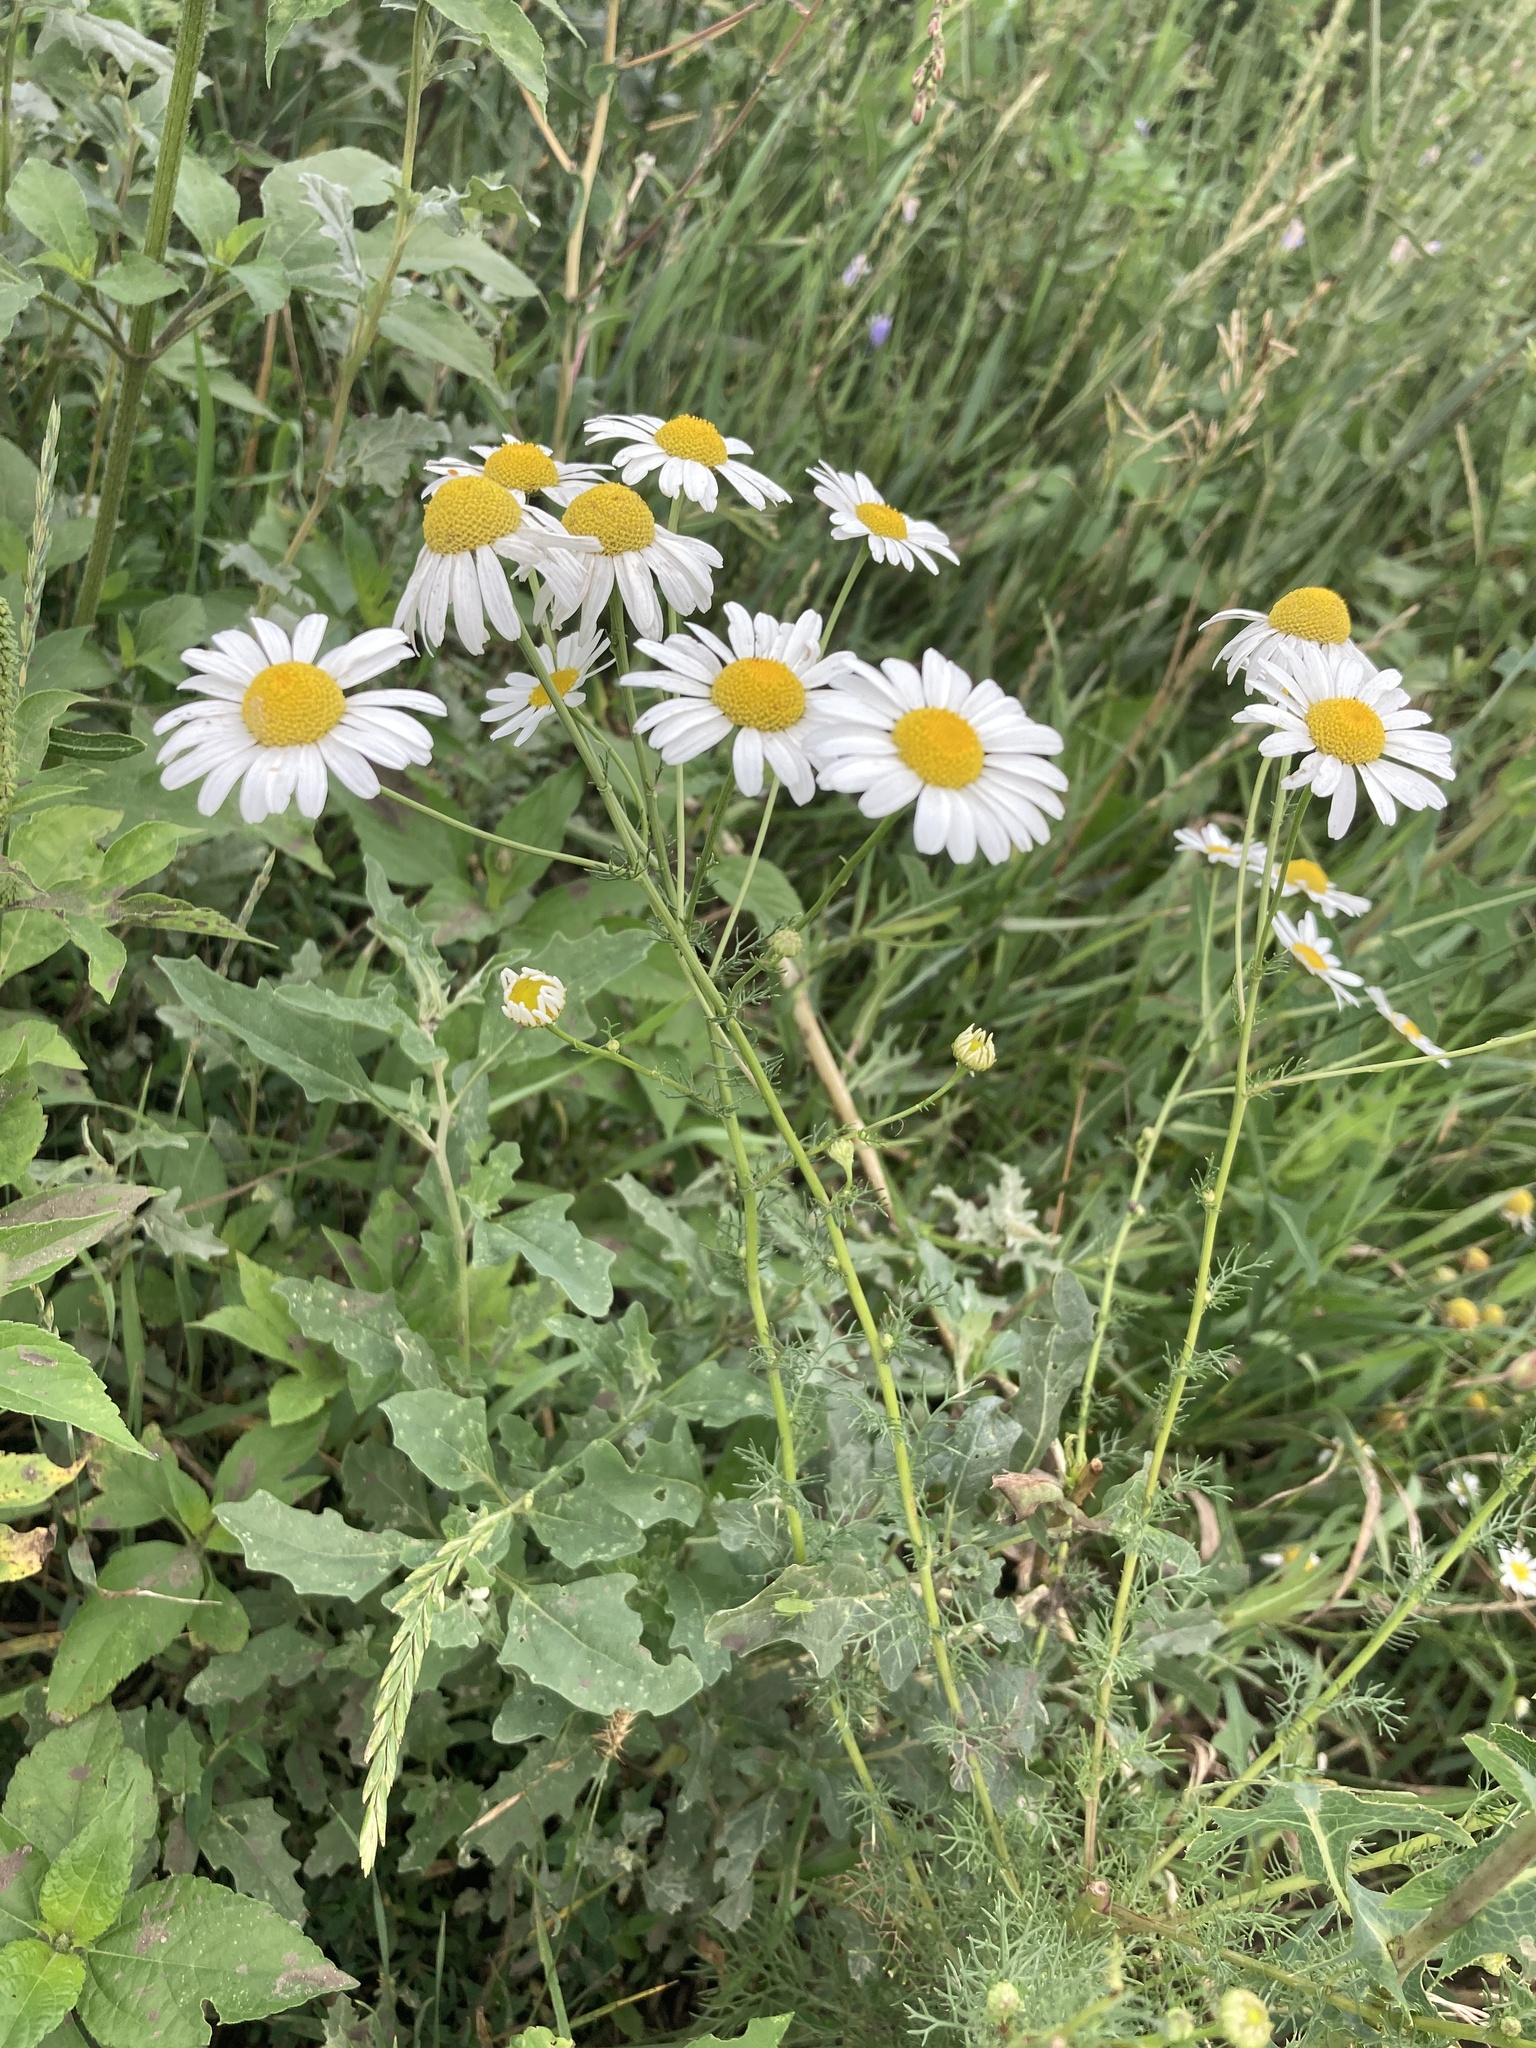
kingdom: Plantae
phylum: Tracheophyta
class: Magnoliopsida
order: Asterales
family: Asteraceae
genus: Tripleurospermum
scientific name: Tripleurospermum inodorum
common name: Scentless mayweed
